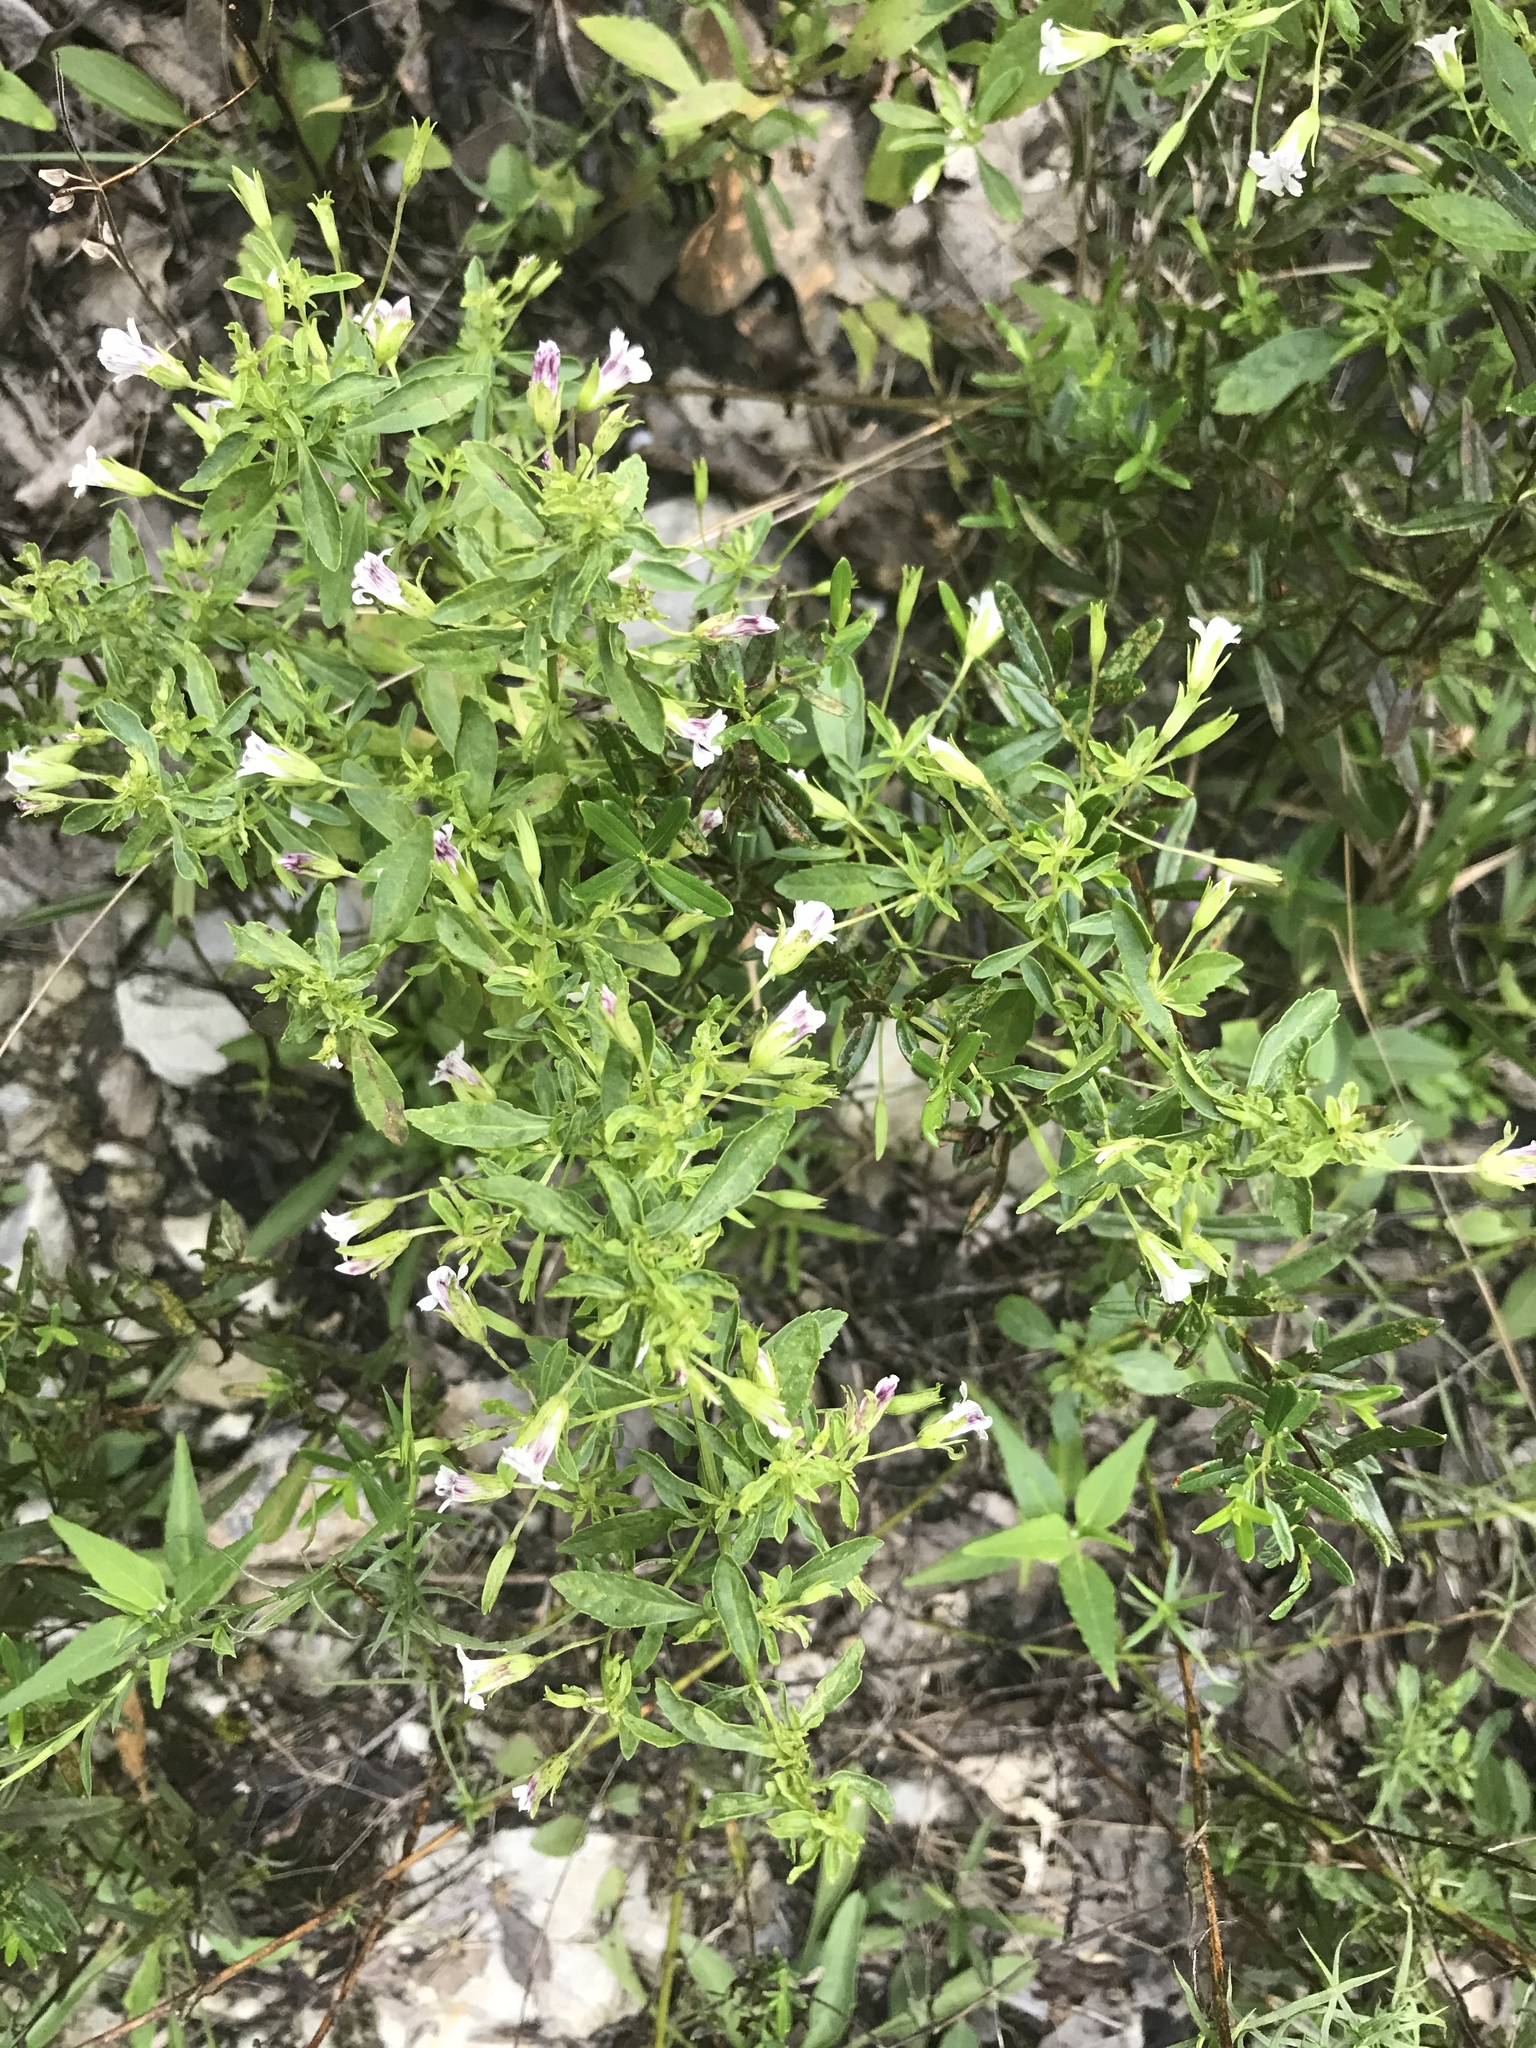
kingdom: Plantae
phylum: Tracheophyta
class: Magnoliopsida
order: Lamiales
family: Plantaginaceae
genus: Mecardonia
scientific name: Mecardonia acuminata
